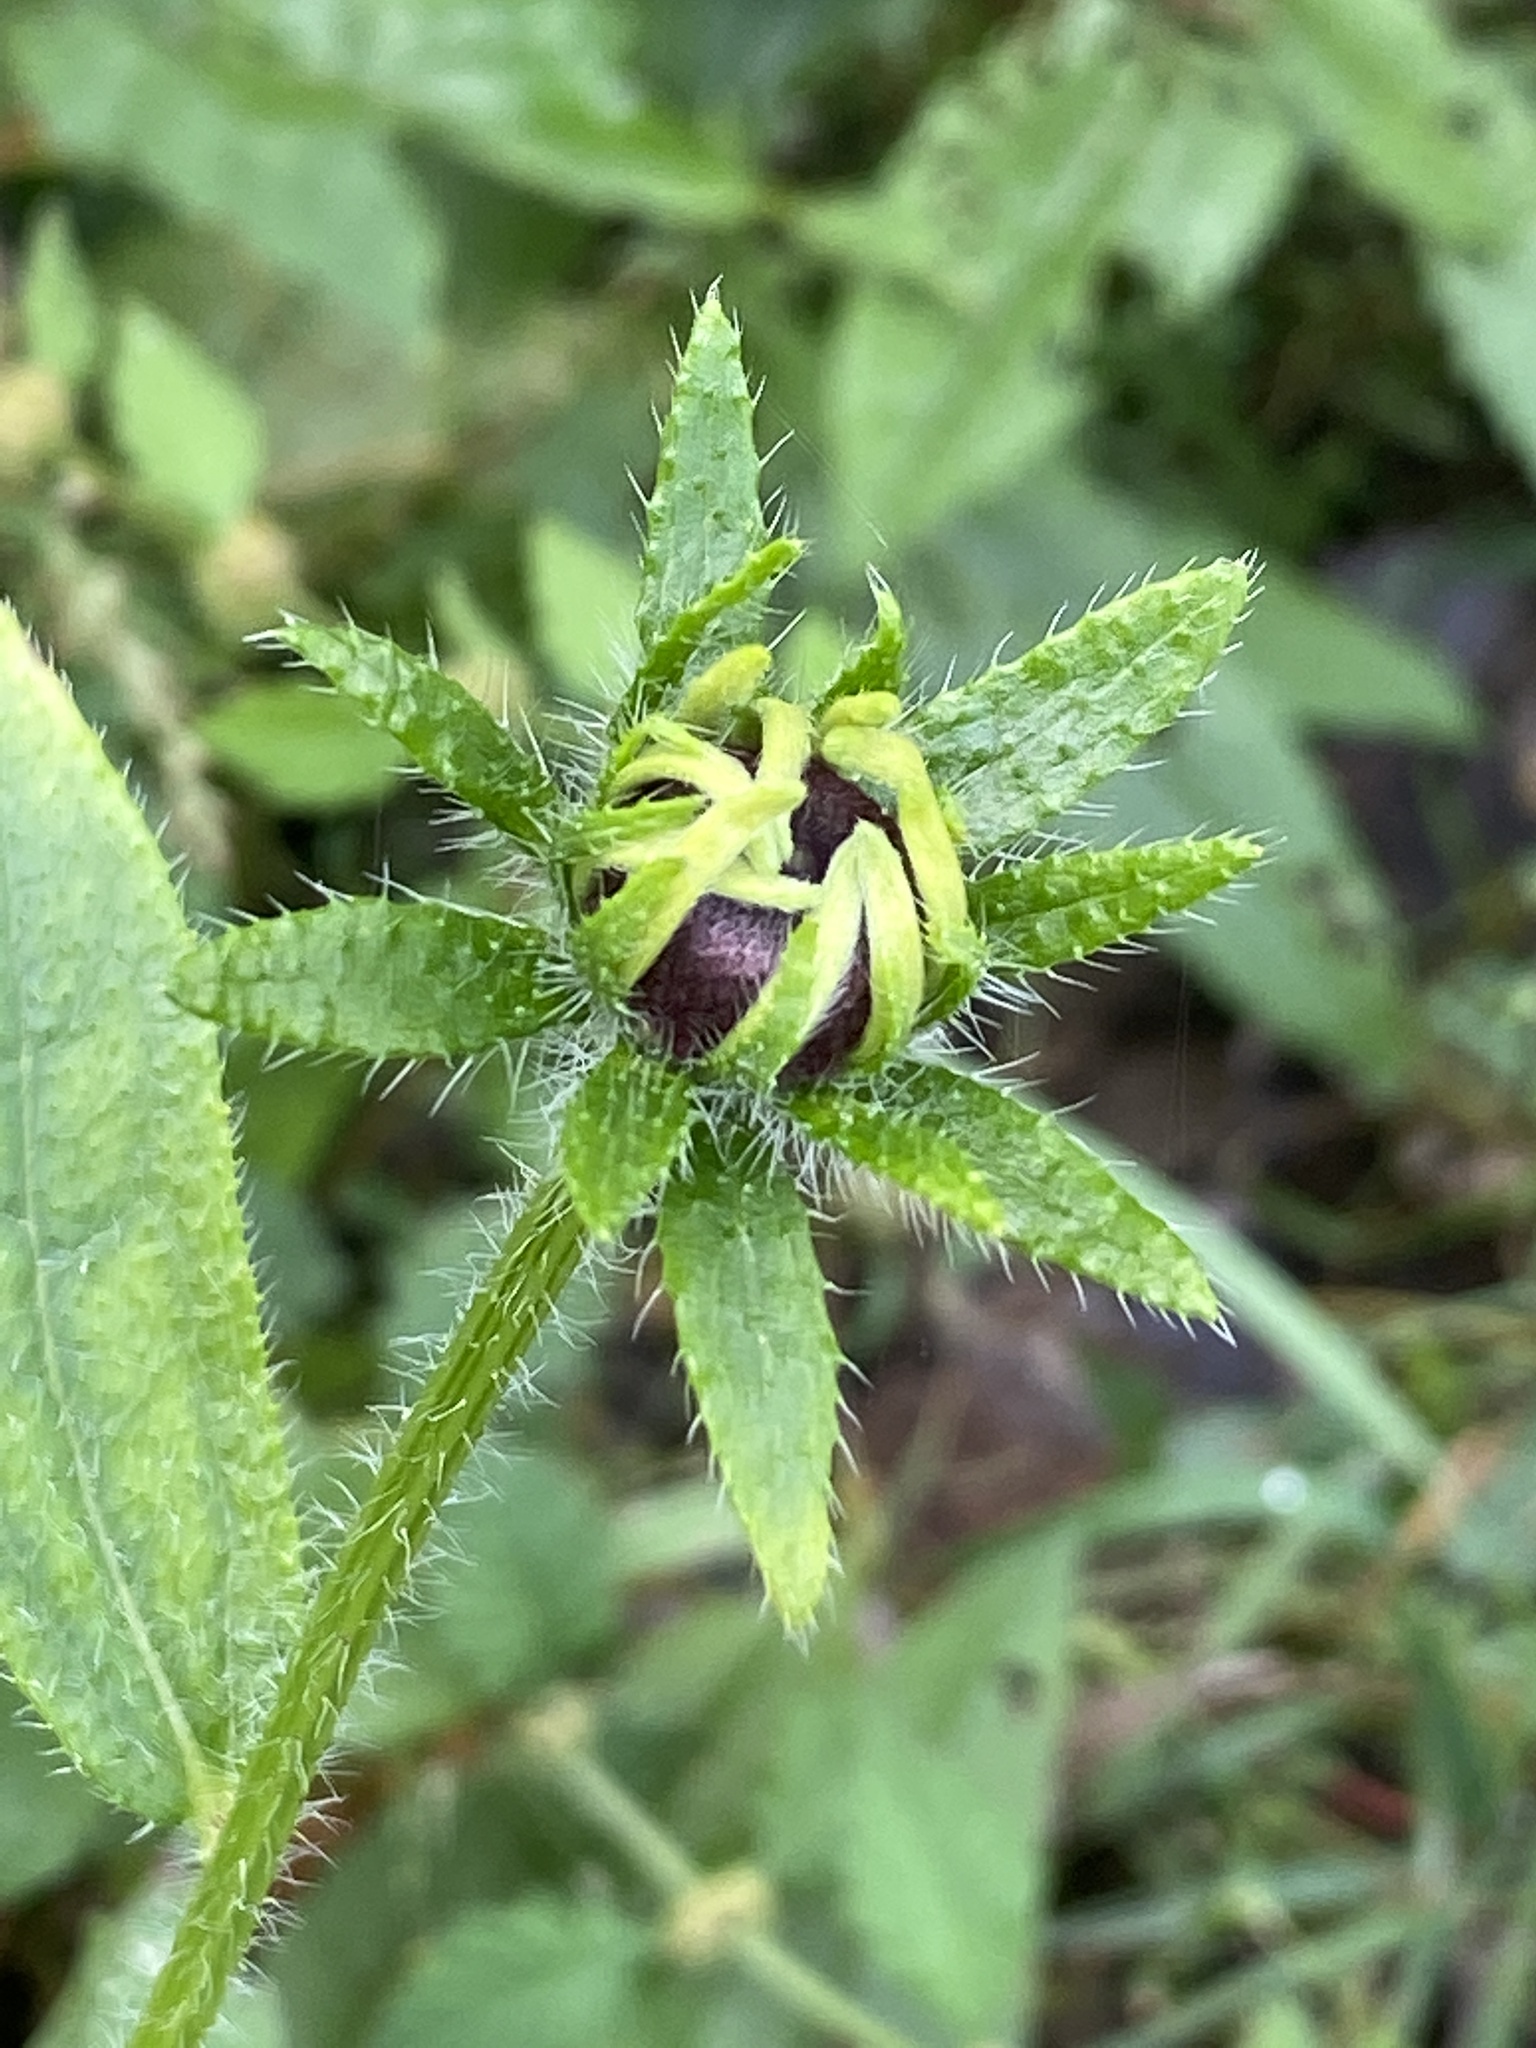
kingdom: Plantae
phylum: Tracheophyta
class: Magnoliopsida
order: Asterales
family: Asteraceae
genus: Rudbeckia
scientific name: Rudbeckia hirta
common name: Black-eyed-susan
